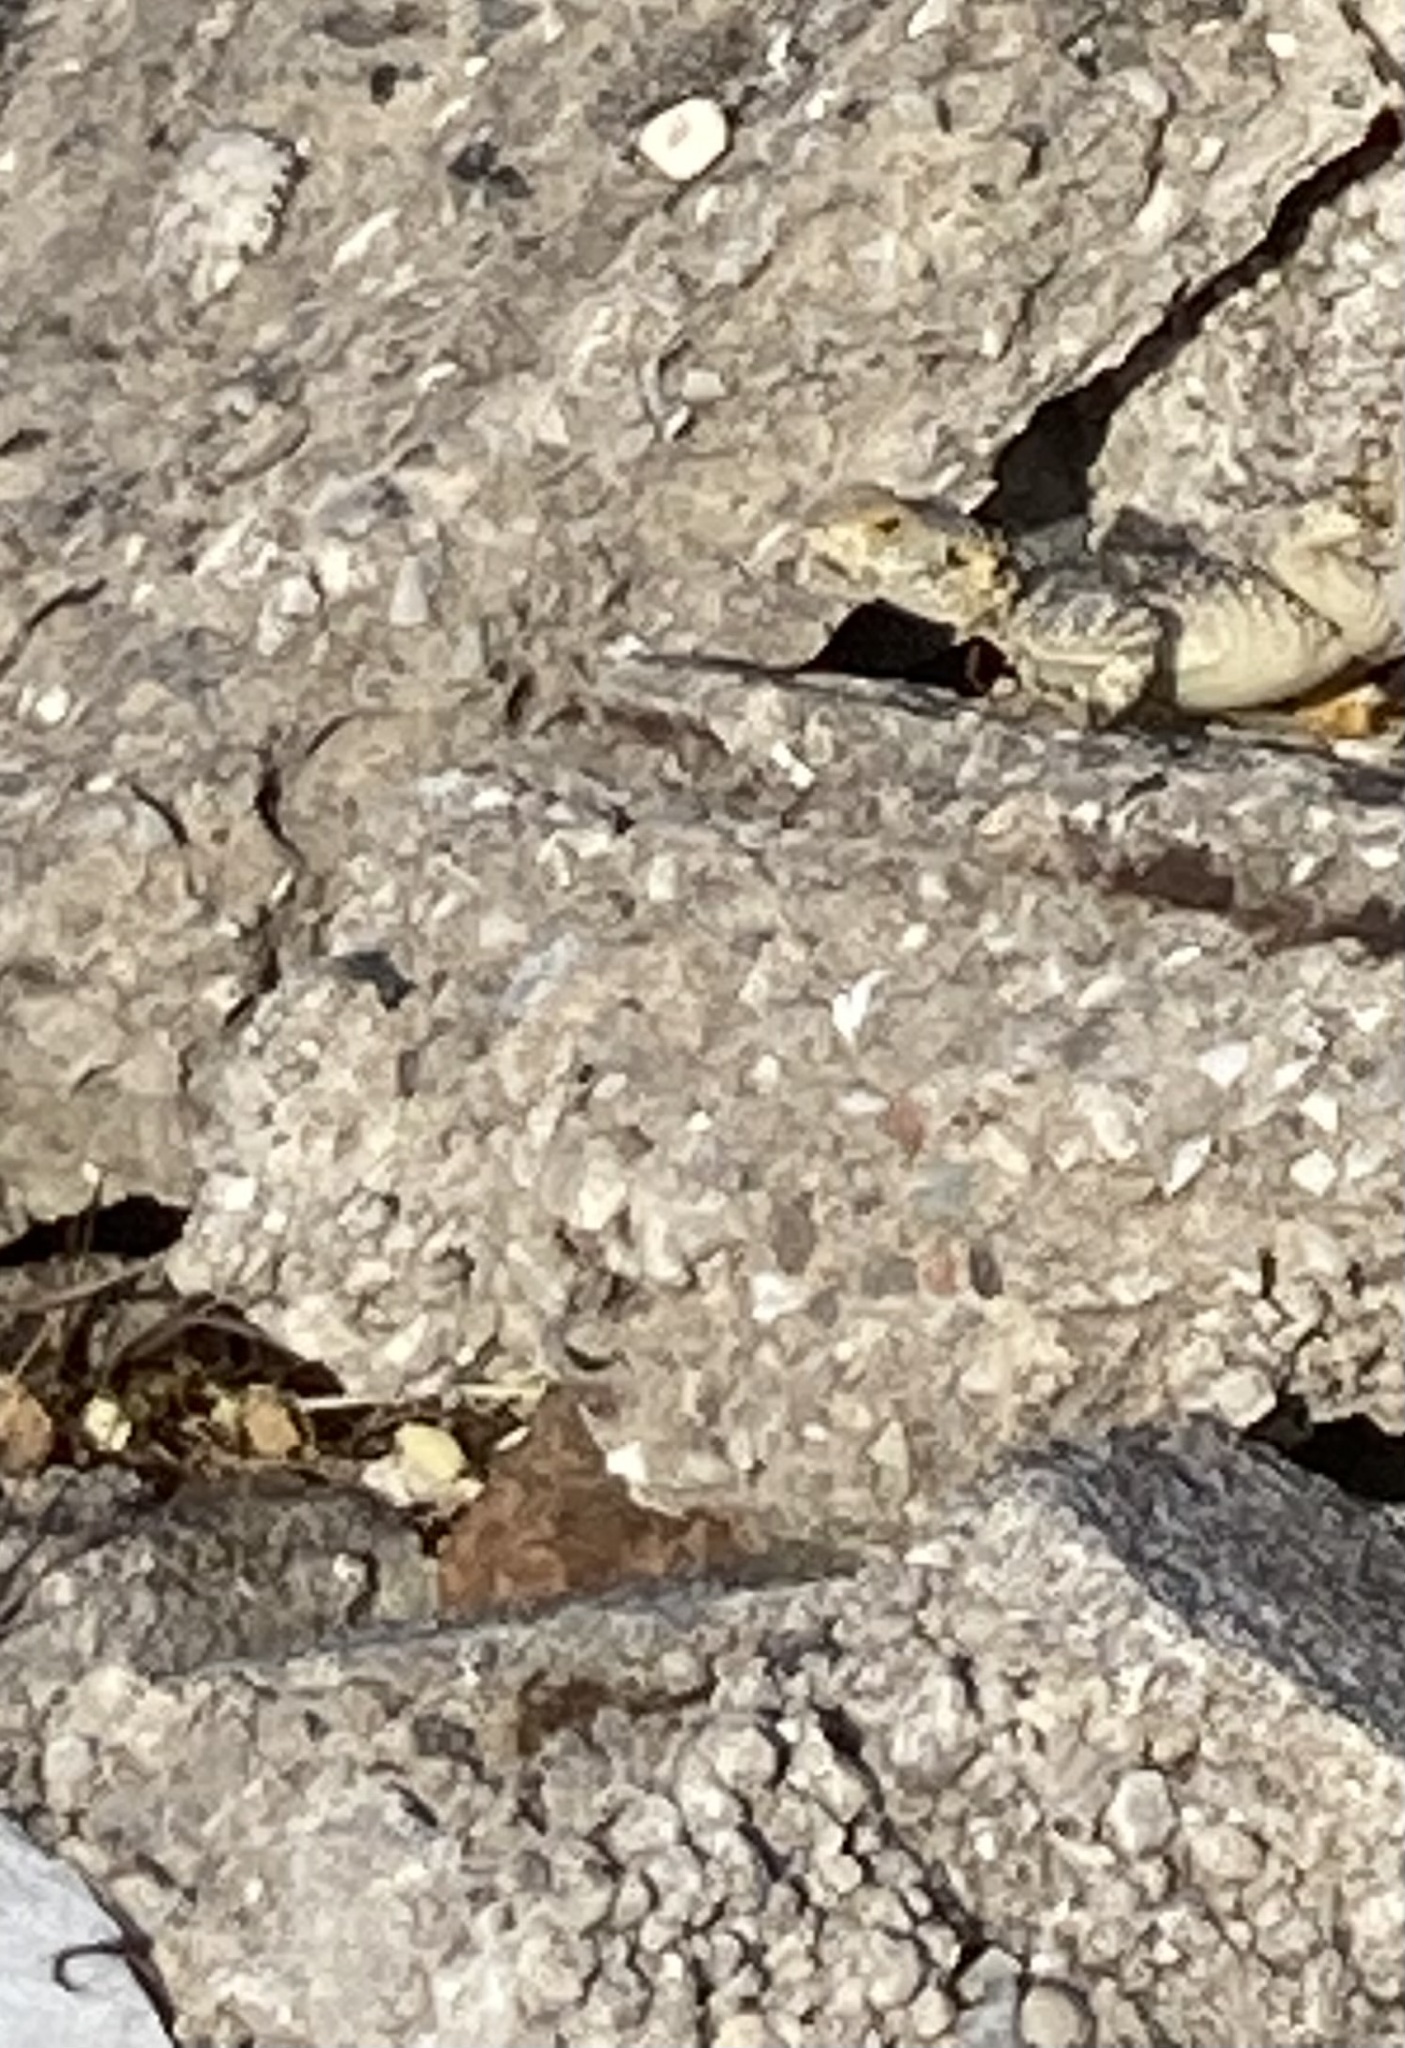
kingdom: Animalia
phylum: Chordata
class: Squamata
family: Agamidae
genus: Stellagama
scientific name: Stellagama stellio
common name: Starred agama
